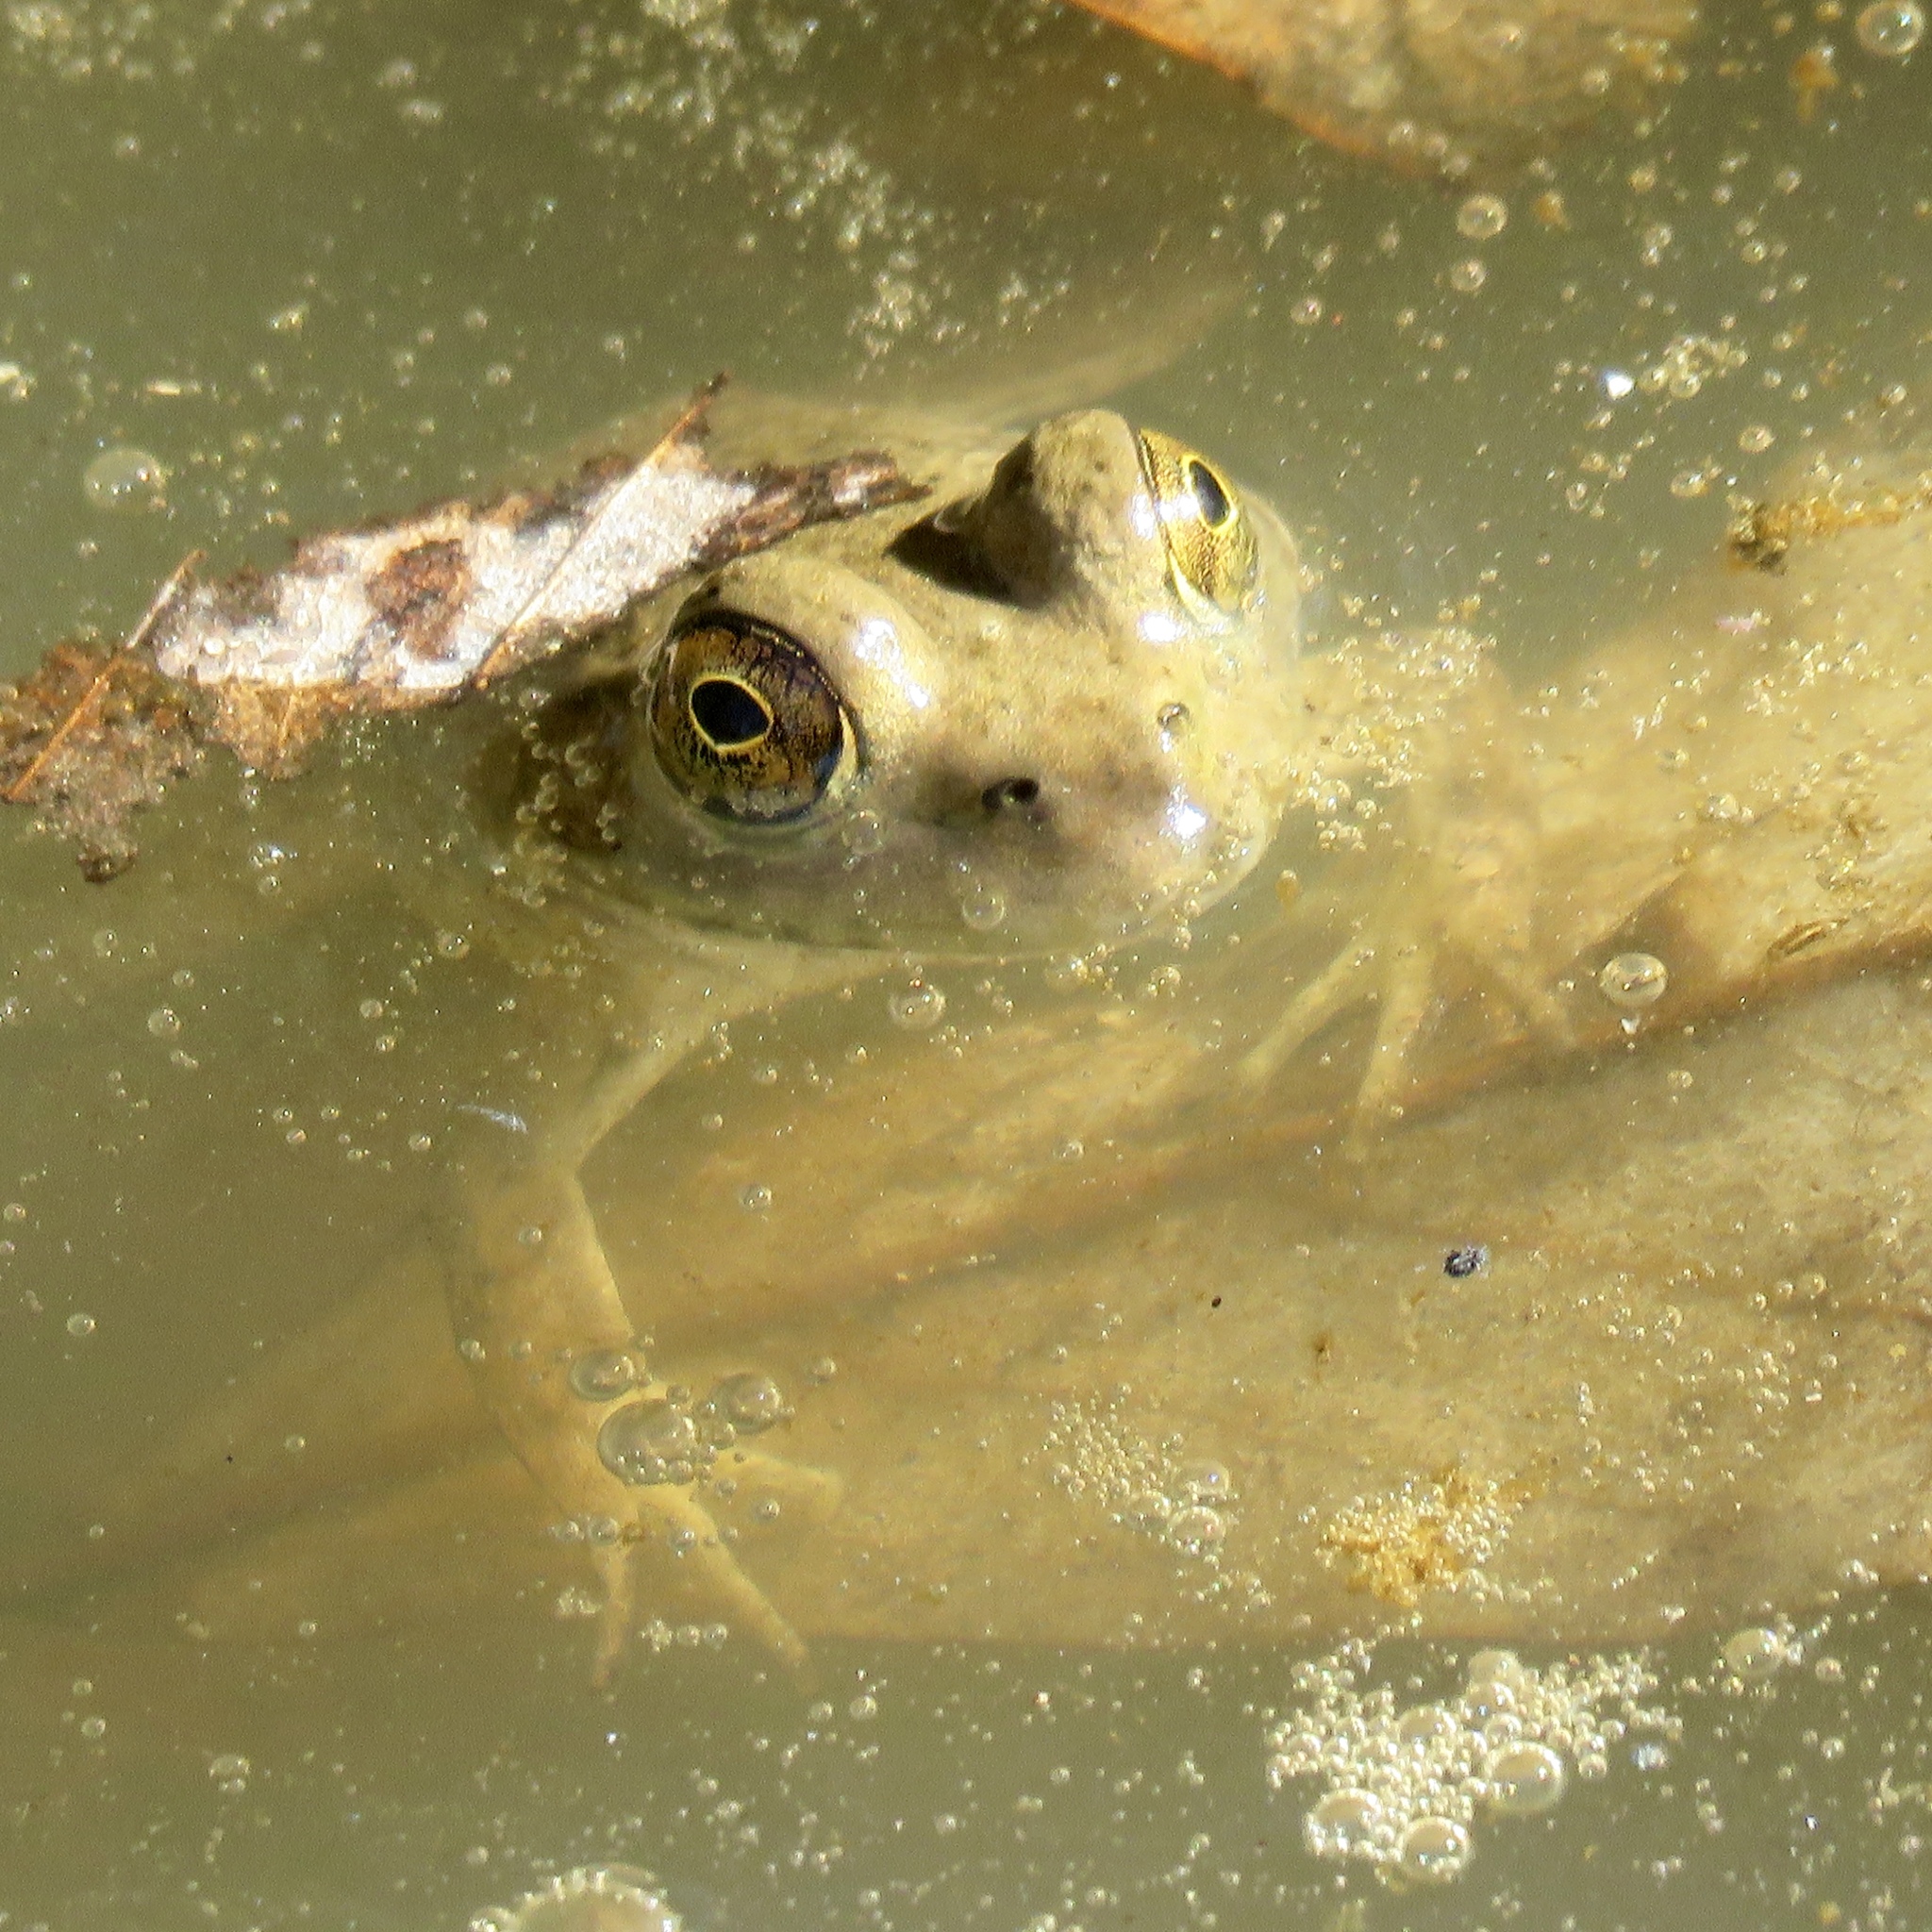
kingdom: Animalia
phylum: Chordata
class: Amphibia
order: Anura
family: Ranidae
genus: Lithobates
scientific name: Lithobates catesbeianus
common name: American bullfrog
